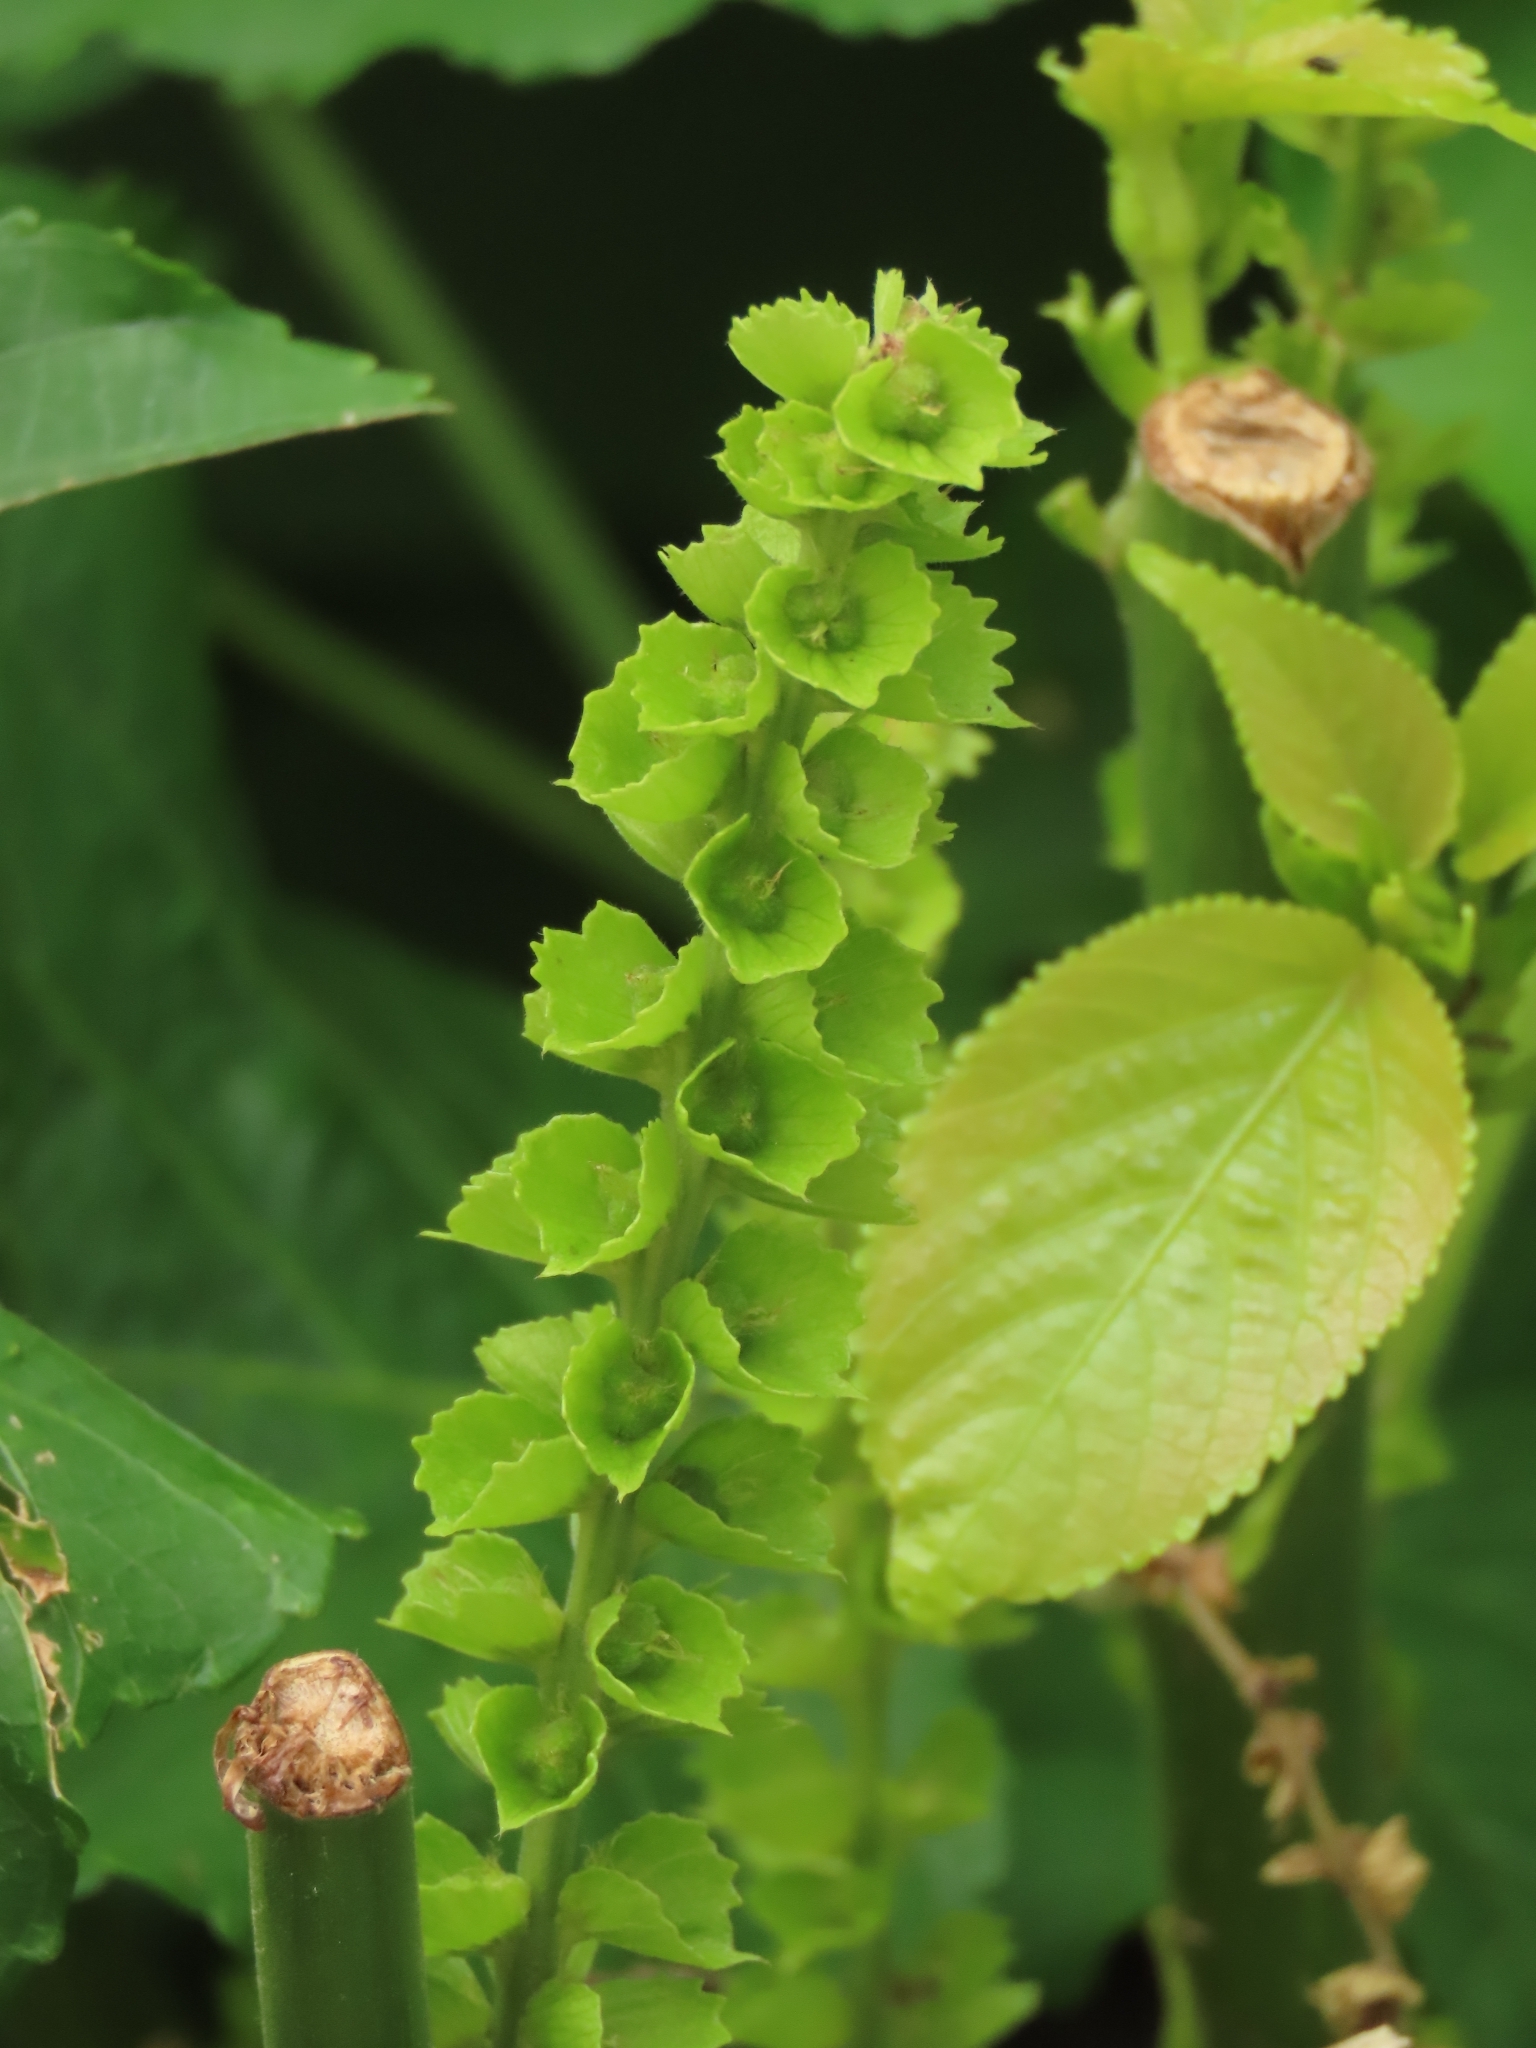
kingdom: Plantae
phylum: Tracheophyta
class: Magnoliopsida
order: Malpighiales
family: Euphorbiaceae
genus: Acalypha
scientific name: Acalypha grandibracteata
